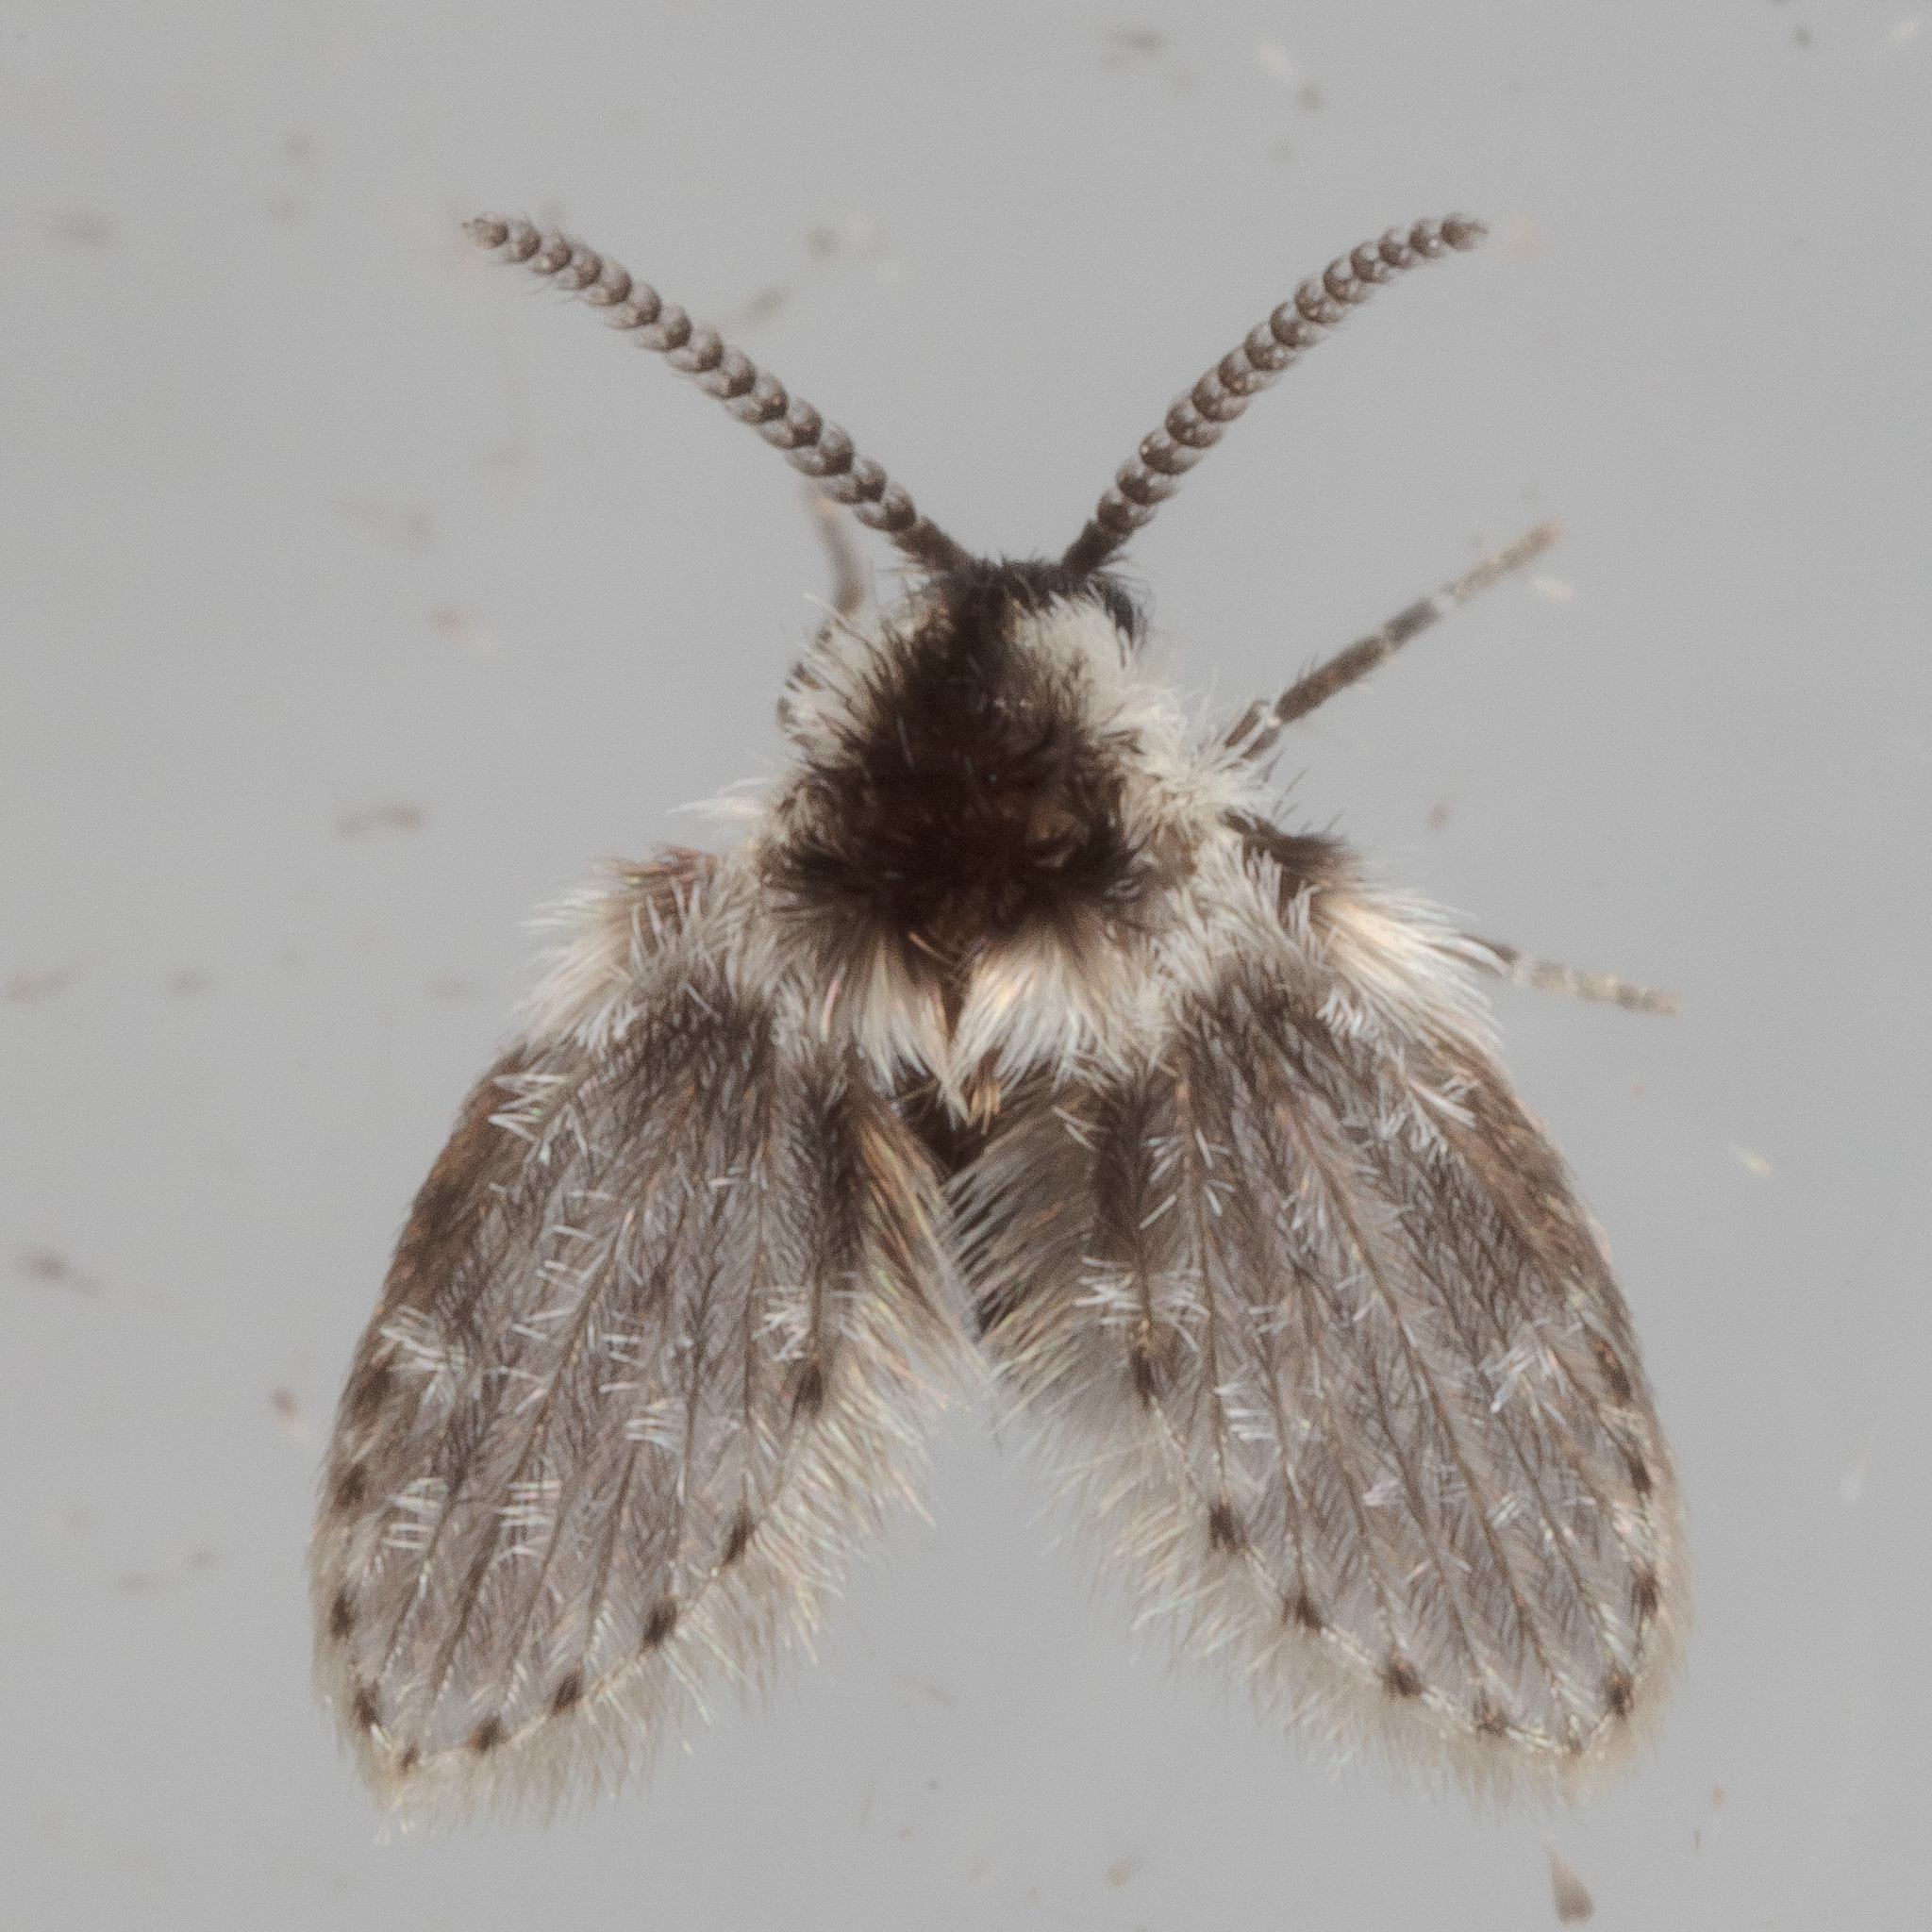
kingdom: Animalia
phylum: Arthropoda
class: Insecta
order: Diptera
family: Psychodidae
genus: Lepiseodina
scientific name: Lepiseodina
